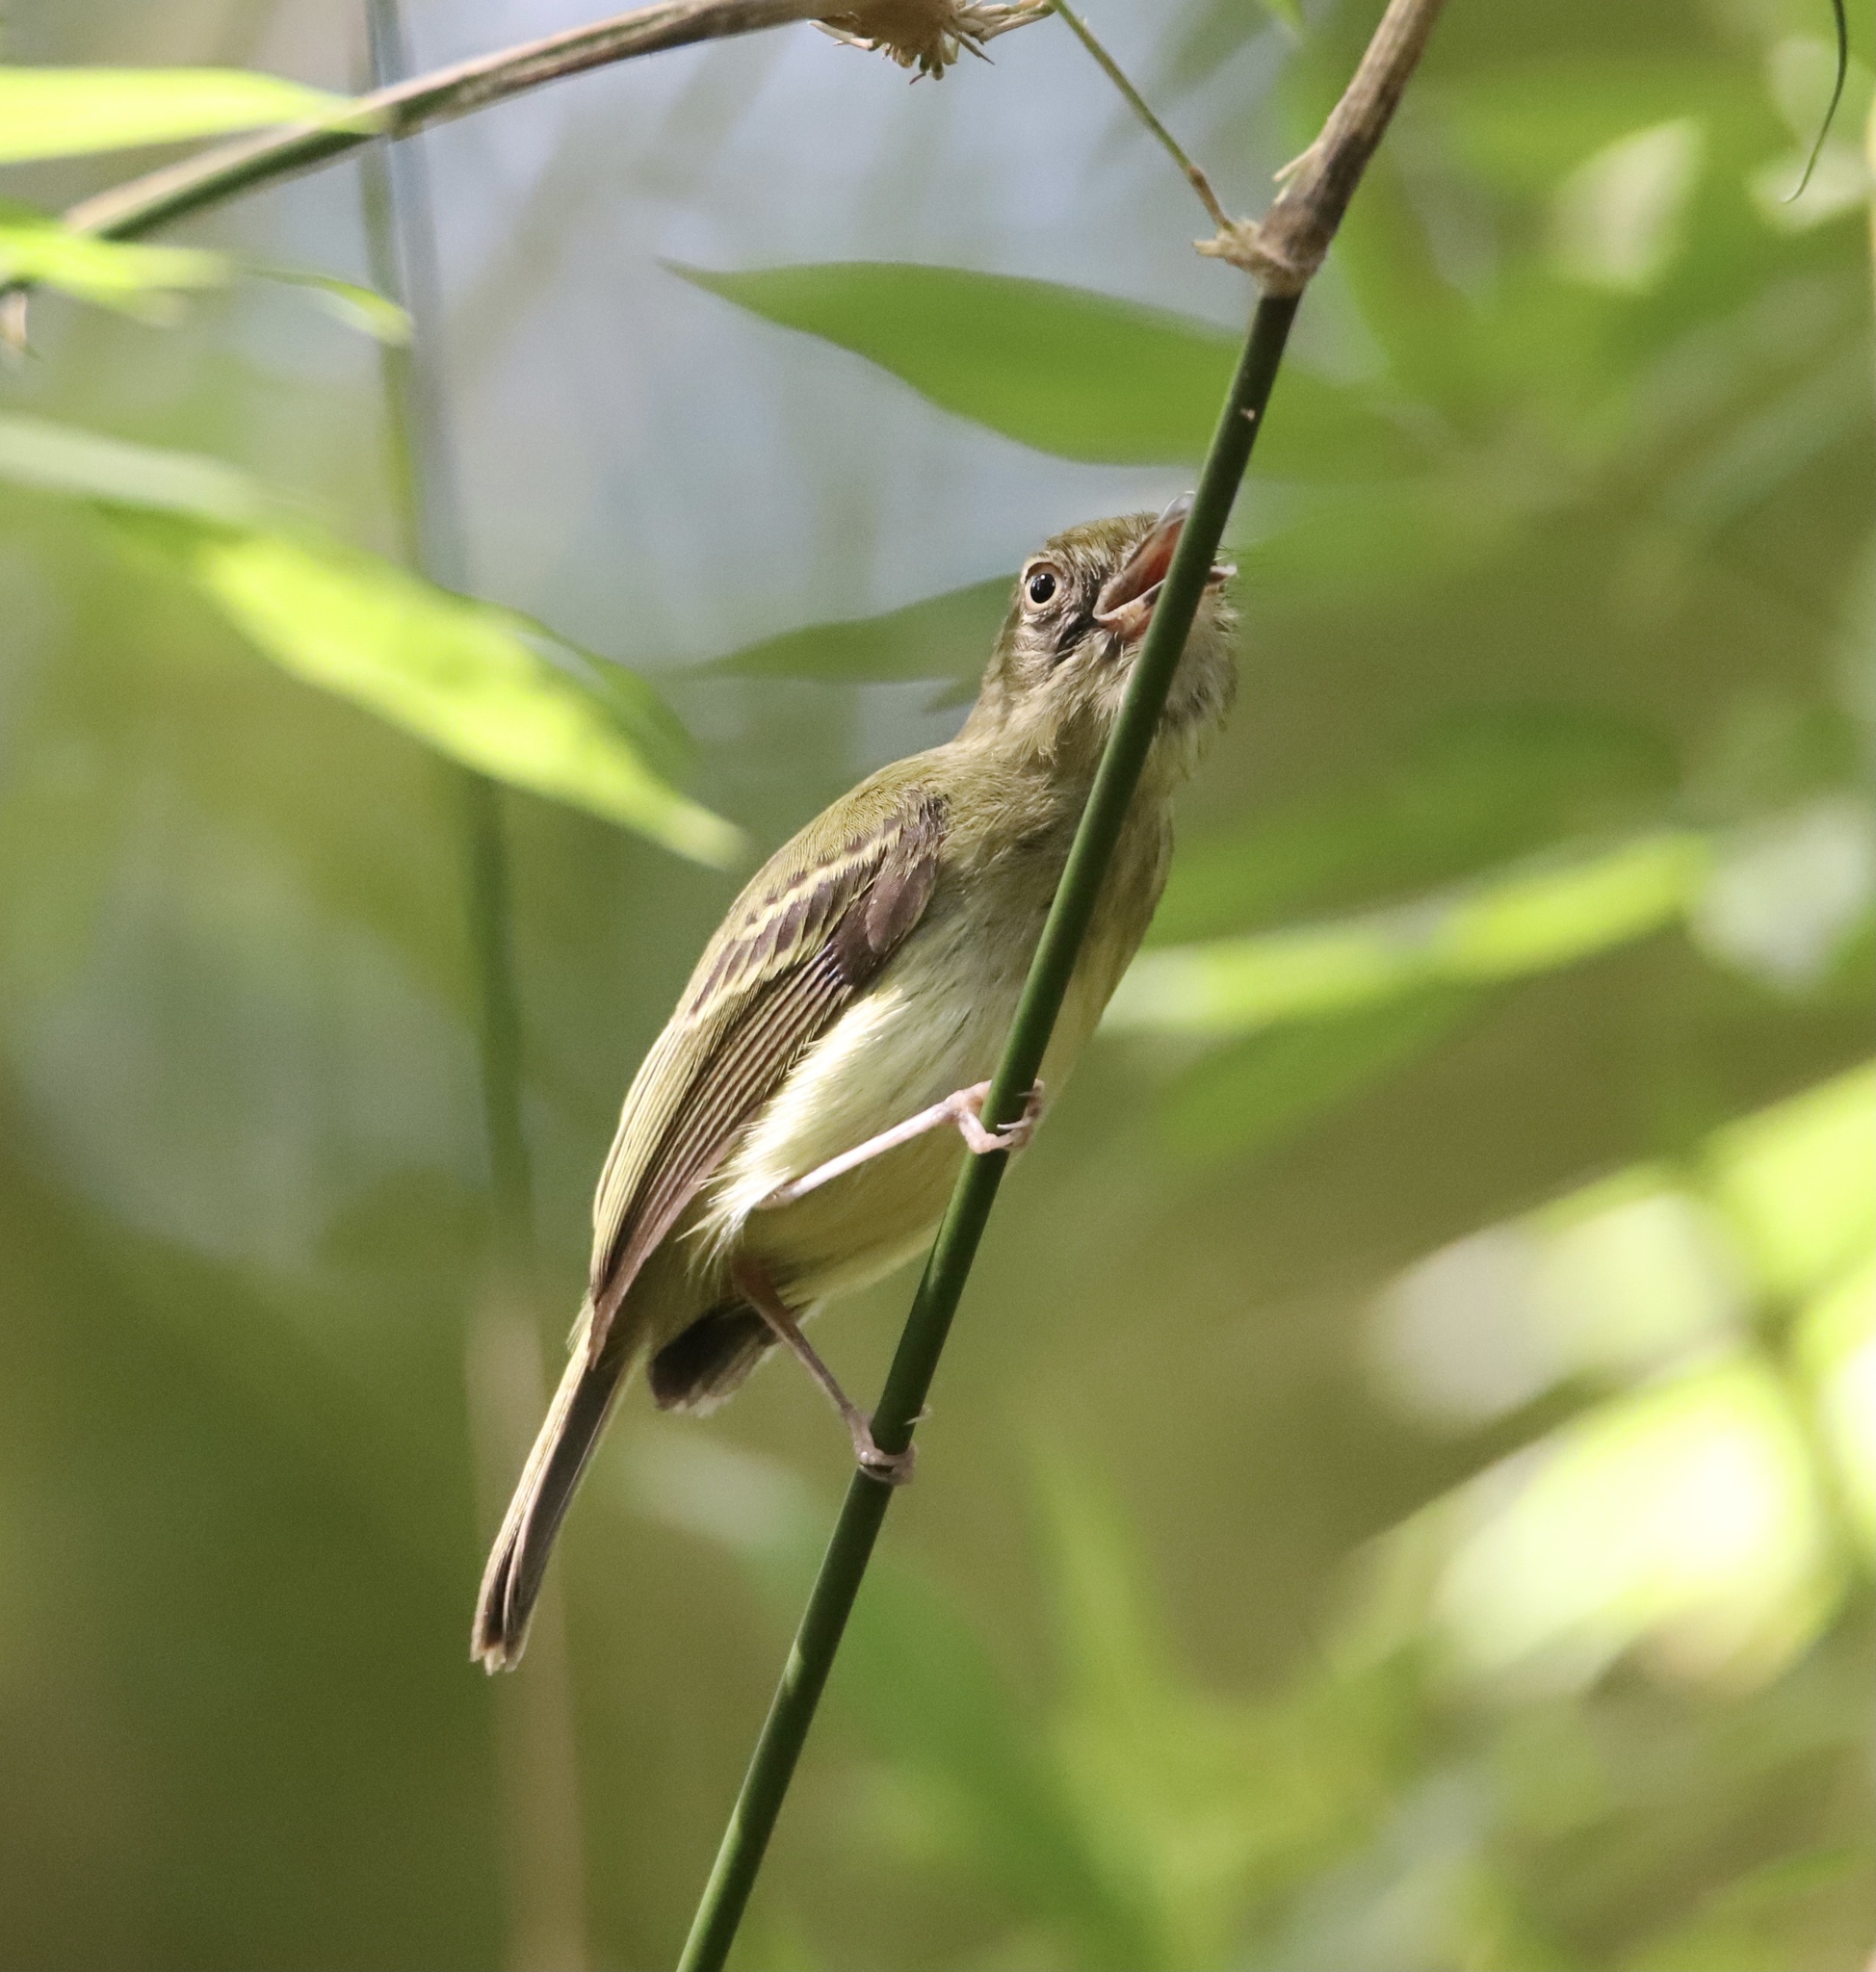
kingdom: Animalia
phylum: Chordata
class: Aves
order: Passeriformes
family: Tyrannidae
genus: Oncostoma
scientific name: Oncostoma olivaceum
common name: Southern bentbill
